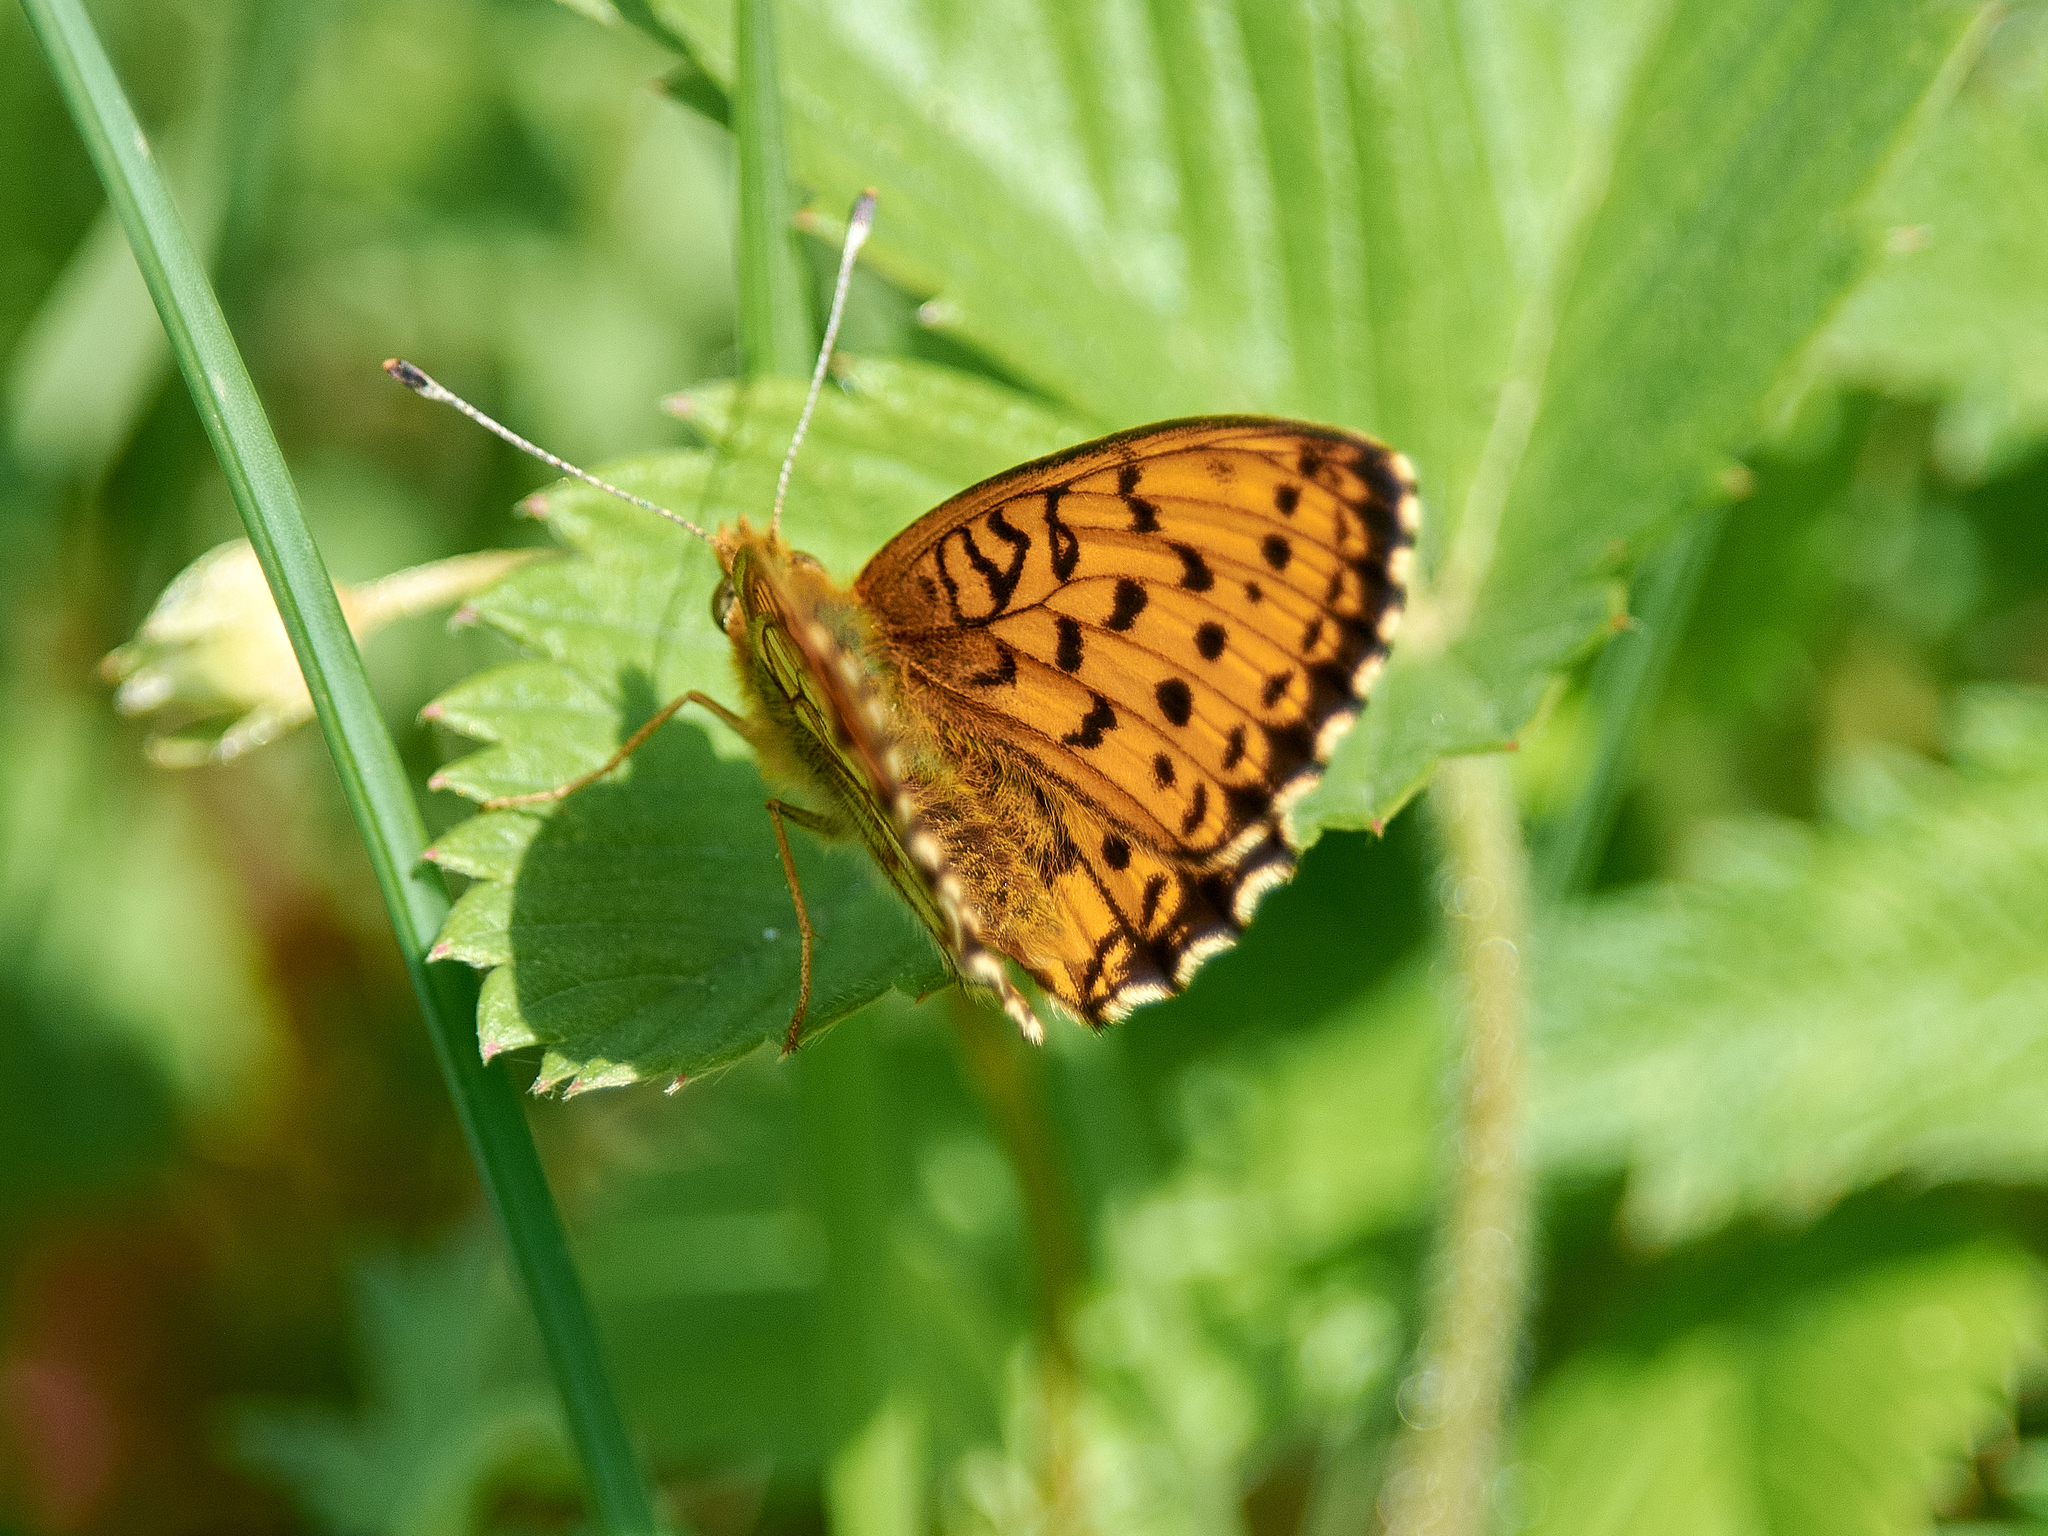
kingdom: Animalia
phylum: Arthropoda
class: Insecta
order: Lepidoptera
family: Nymphalidae
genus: Brenthis
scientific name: Brenthis ino
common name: Lesser marbled fritillary
